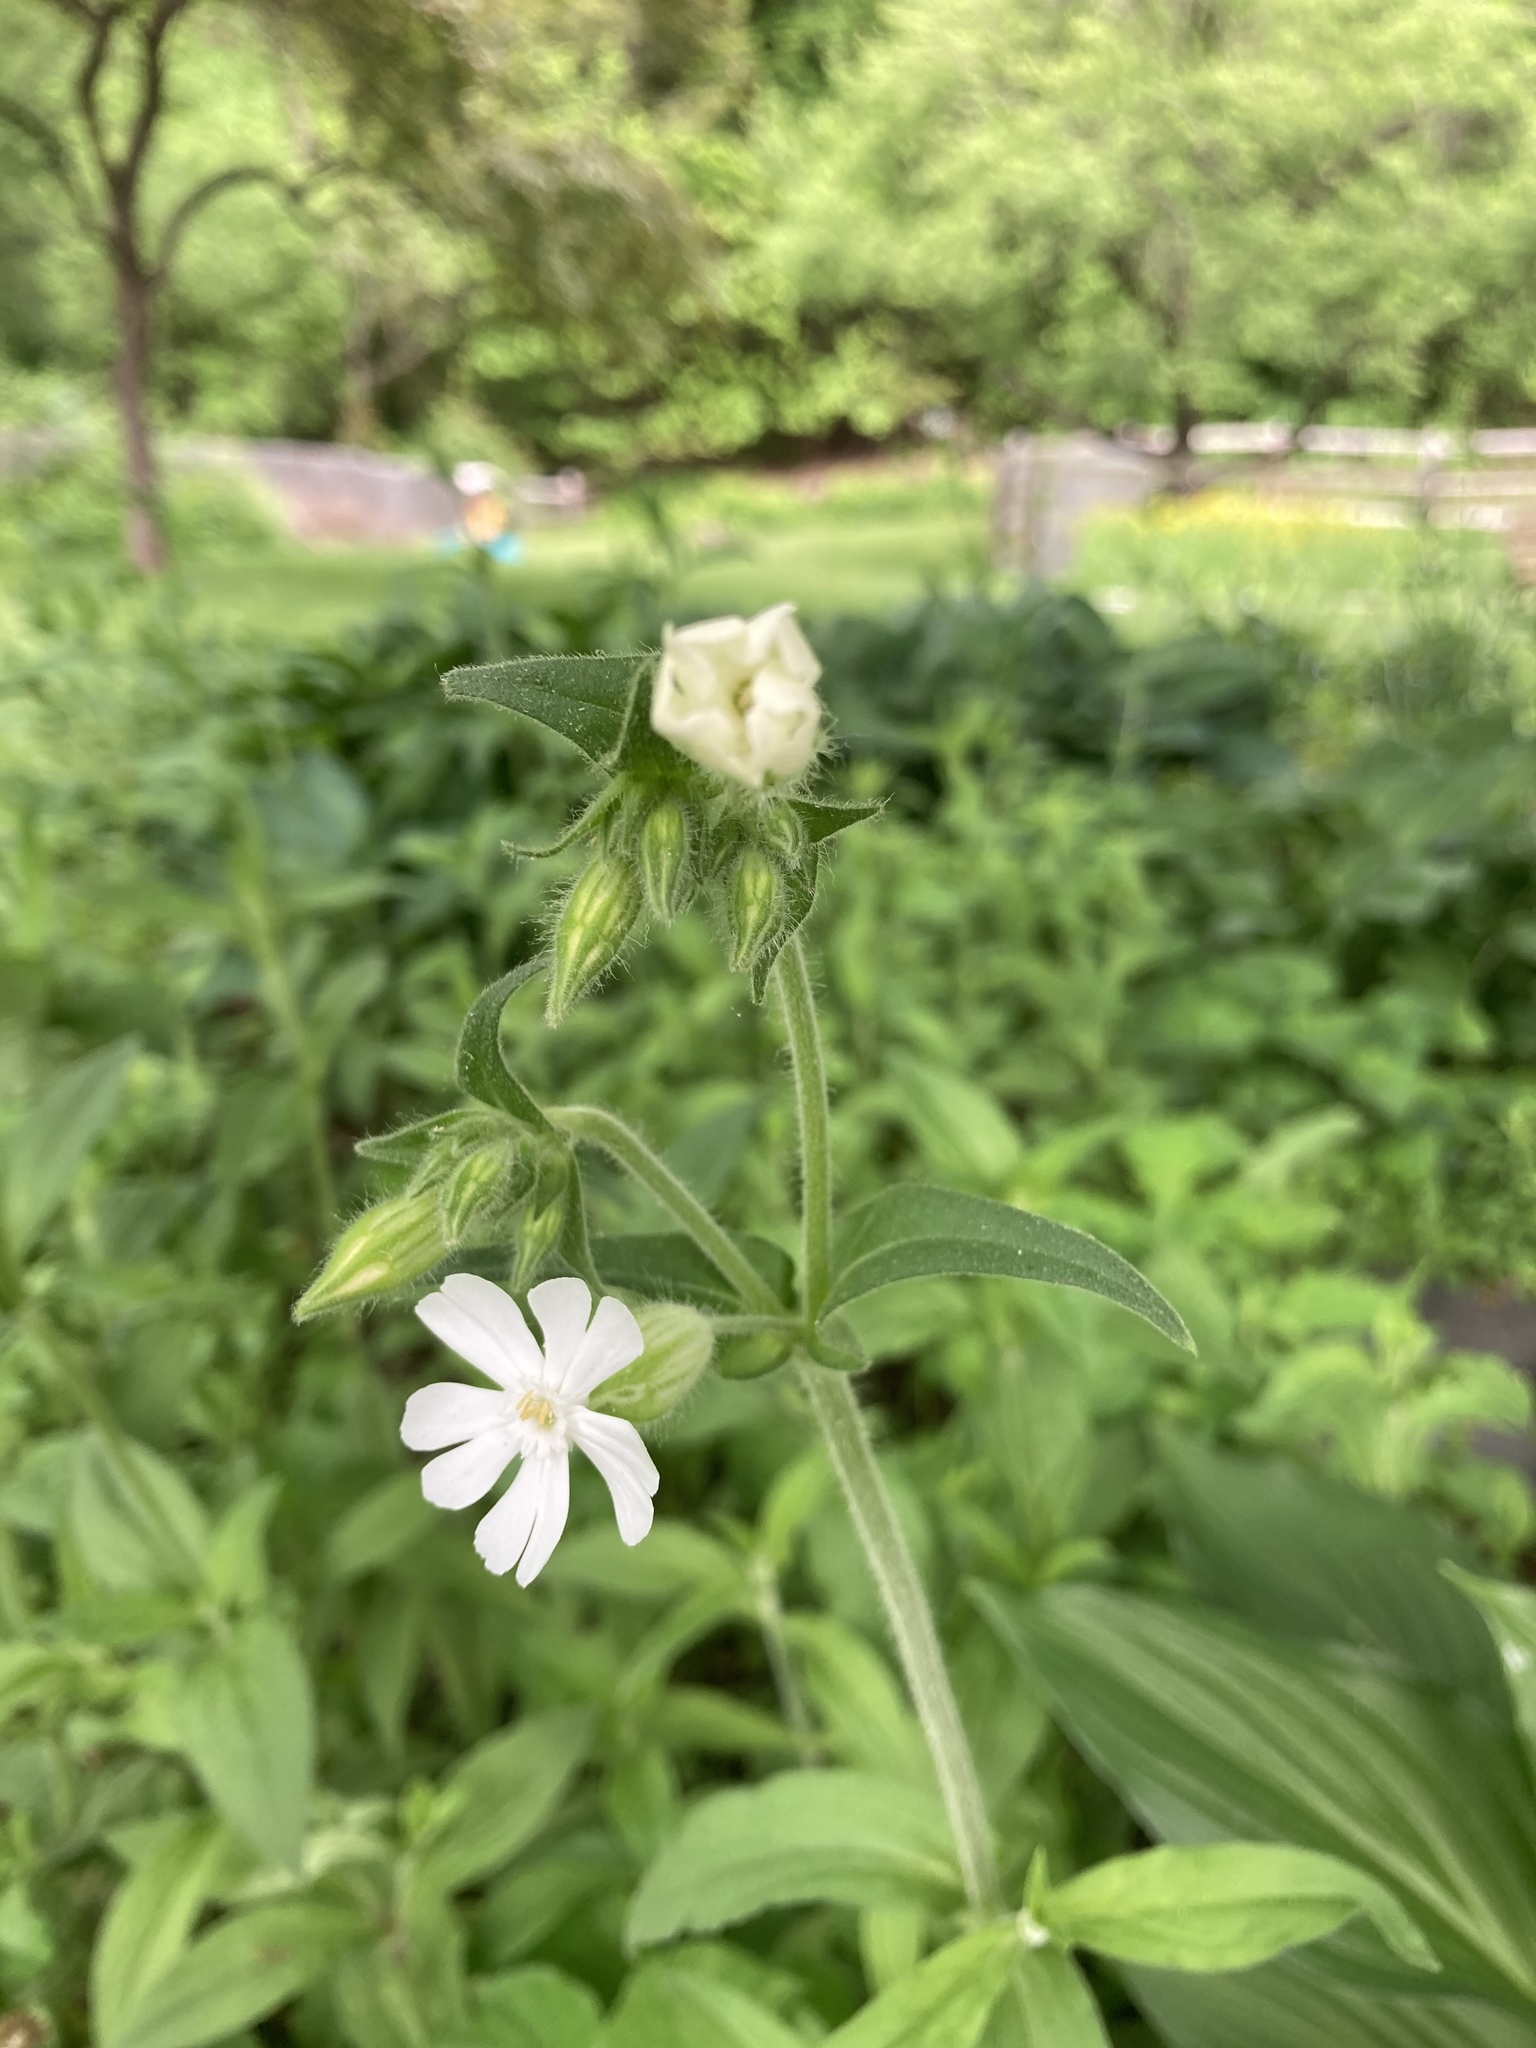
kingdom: Plantae
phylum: Tracheophyta
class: Magnoliopsida
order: Caryophyllales
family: Caryophyllaceae
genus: Silene
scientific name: Silene latifolia
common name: White campion
